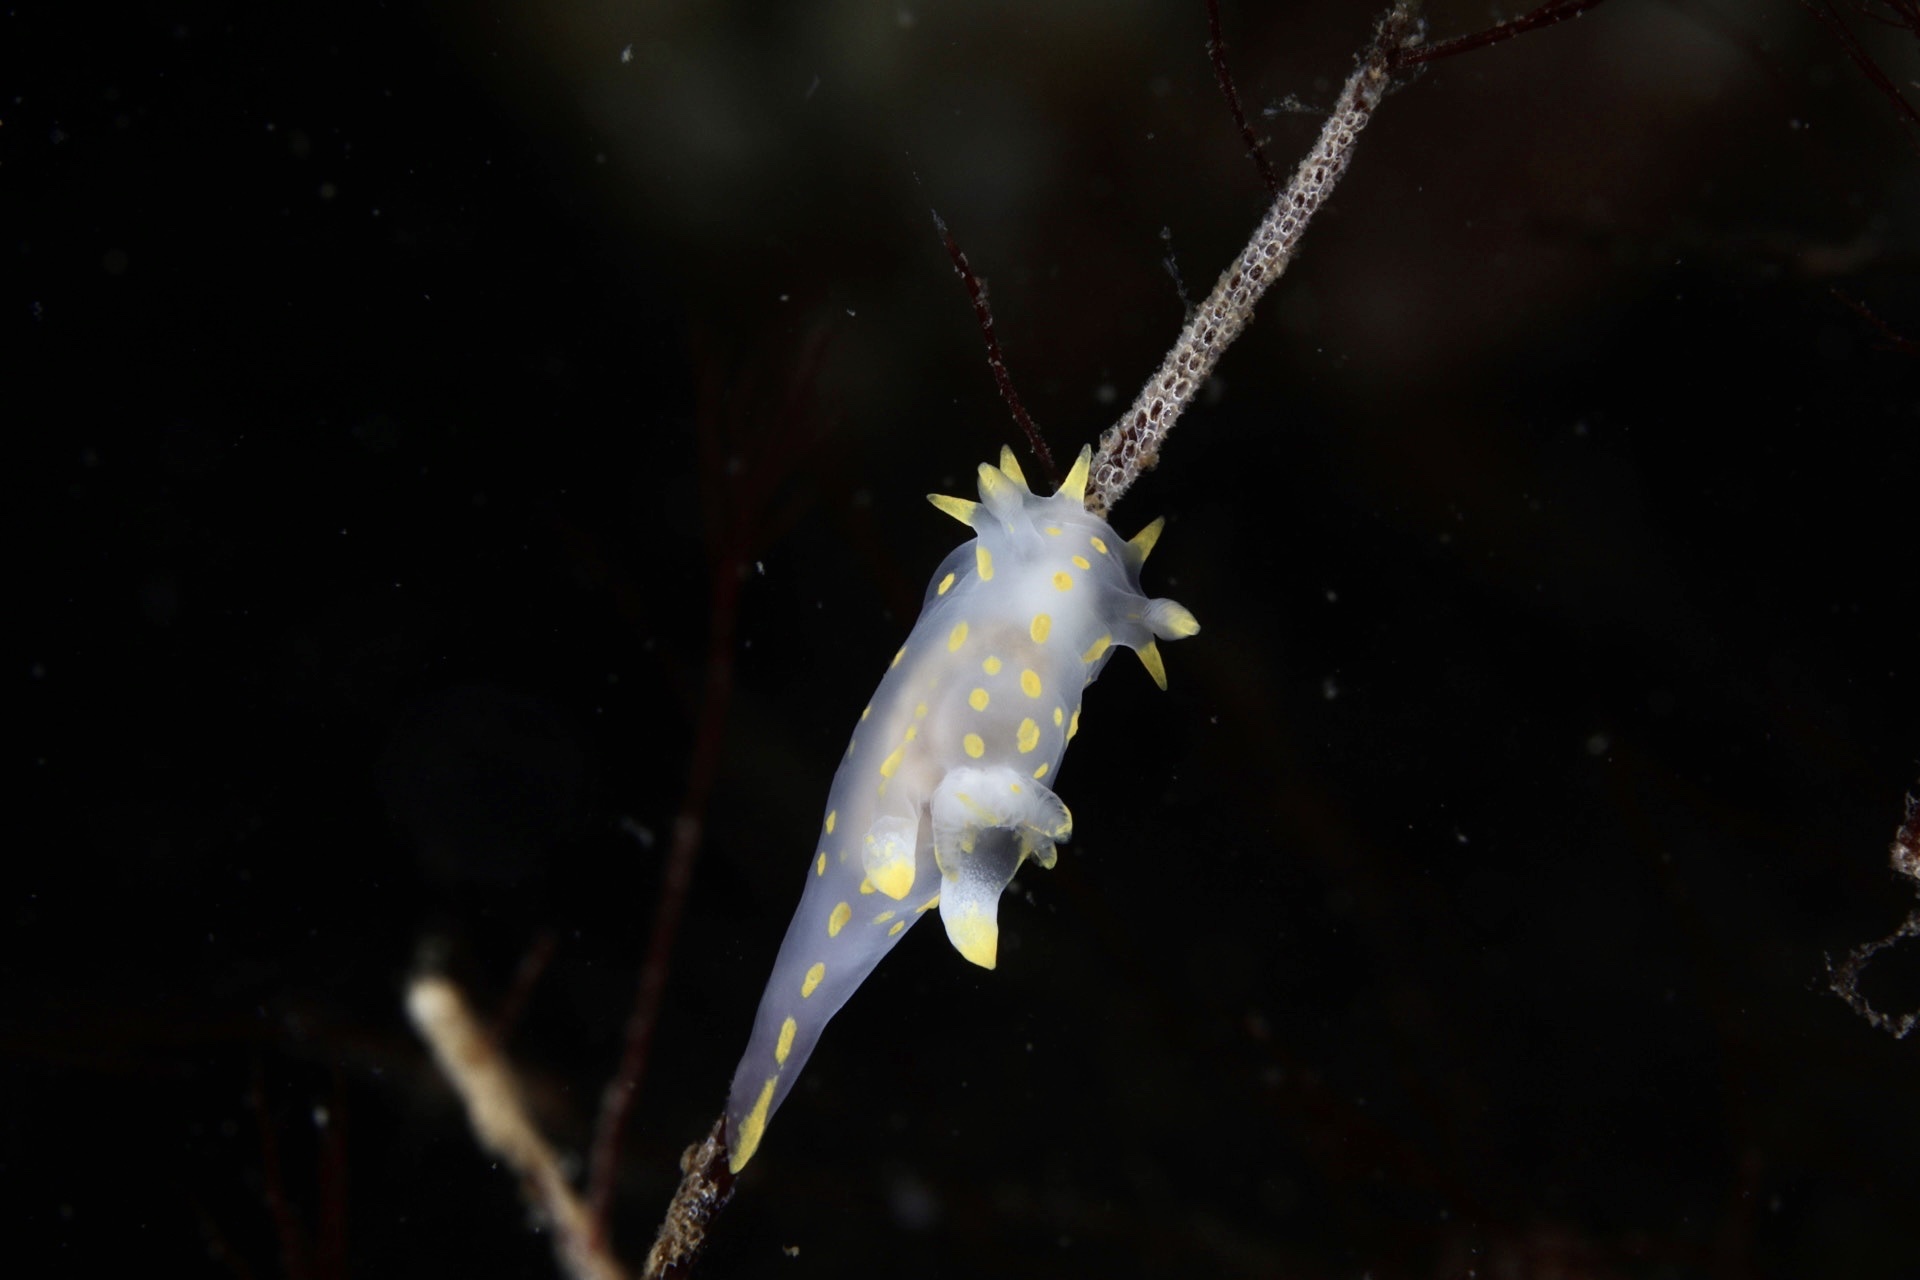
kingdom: Animalia
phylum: Mollusca
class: Gastropoda
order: Nudibranchia
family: Polyceridae
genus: Polycera
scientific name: Polycera quadrilineata
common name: Four-striped polycera
